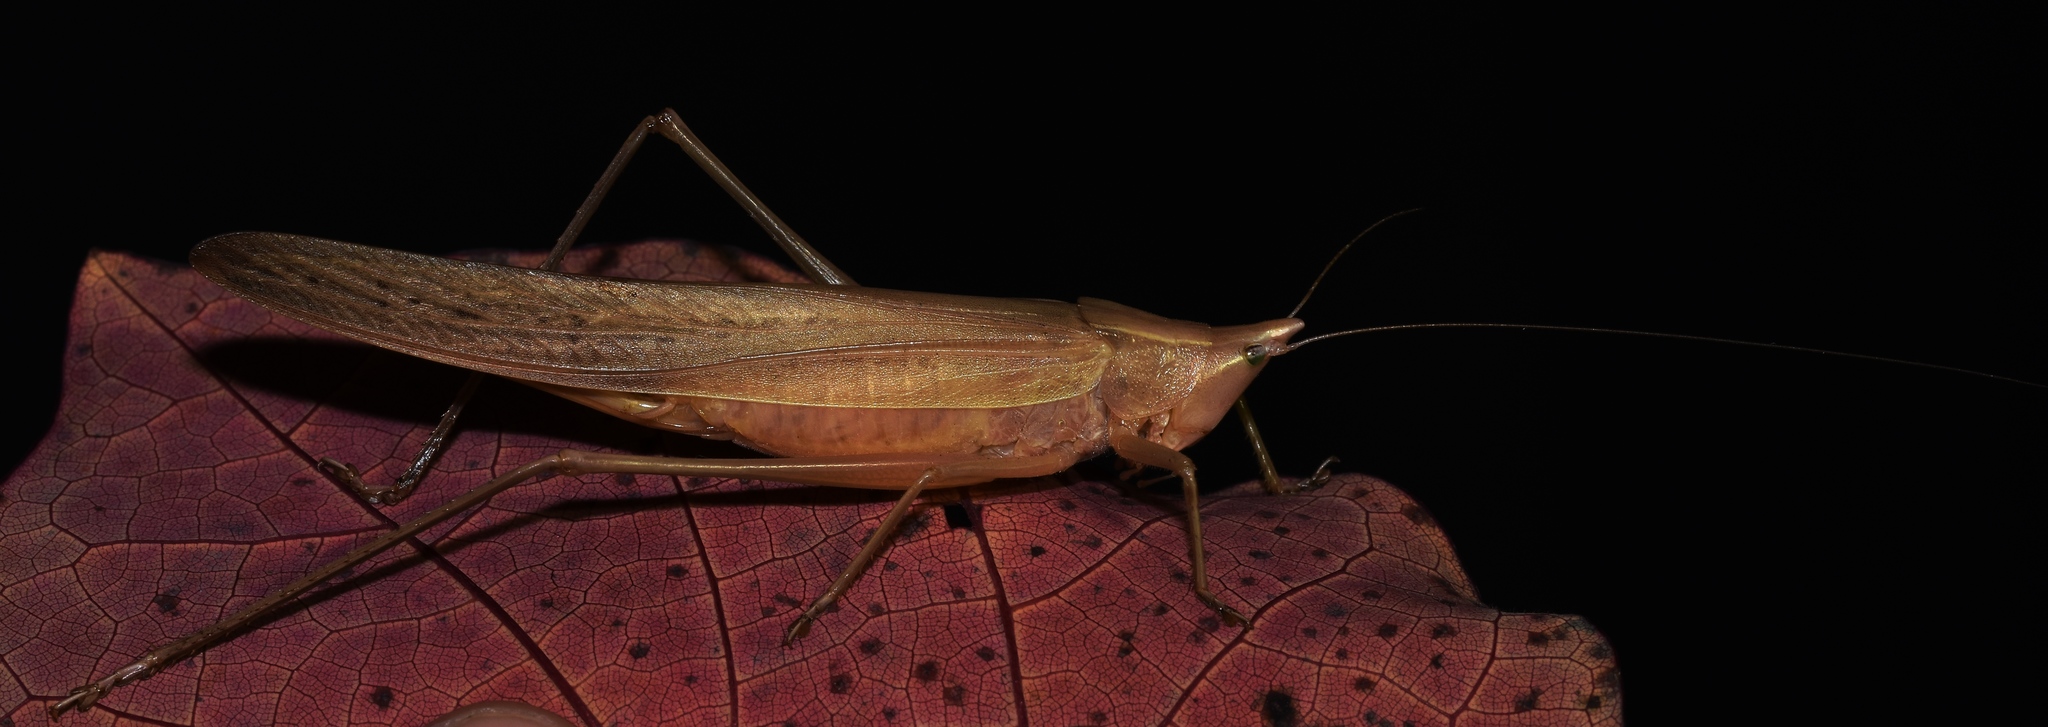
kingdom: Animalia
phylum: Arthropoda
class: Insecta
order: Orthoptera
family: Tettigoniidae
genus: Neoconocephalus
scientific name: Neoconocephalus bivocatus
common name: False robust conehead
